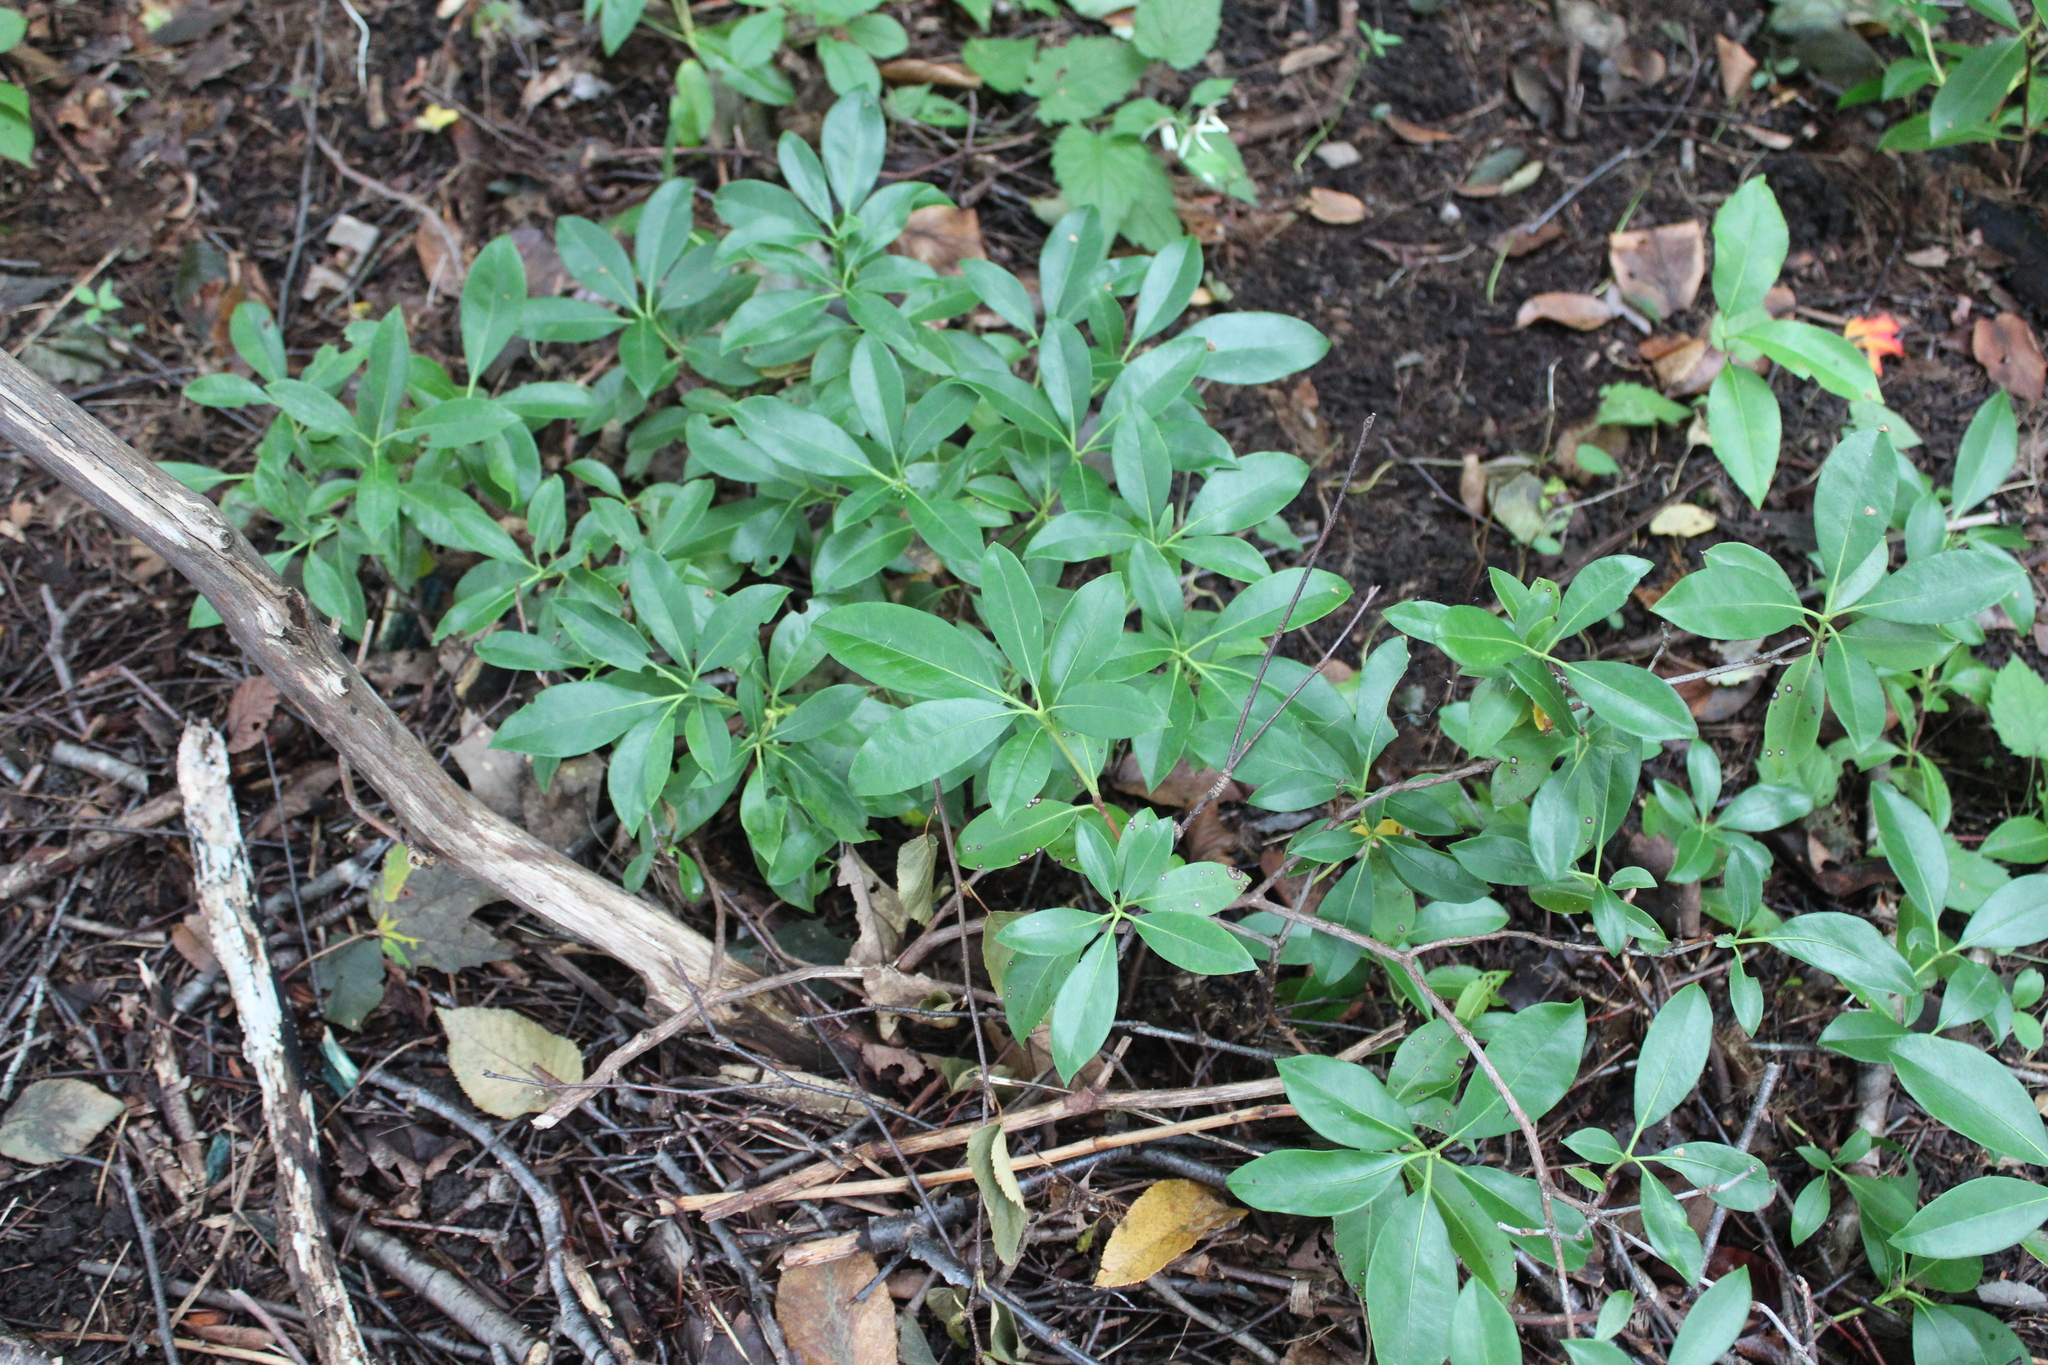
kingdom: Plantae
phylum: Tracheophyta
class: Magnoliopsida
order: Ericales
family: Ericaceae
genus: Kalmia
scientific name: Kalmia latifolia
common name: Mountain-laurel
